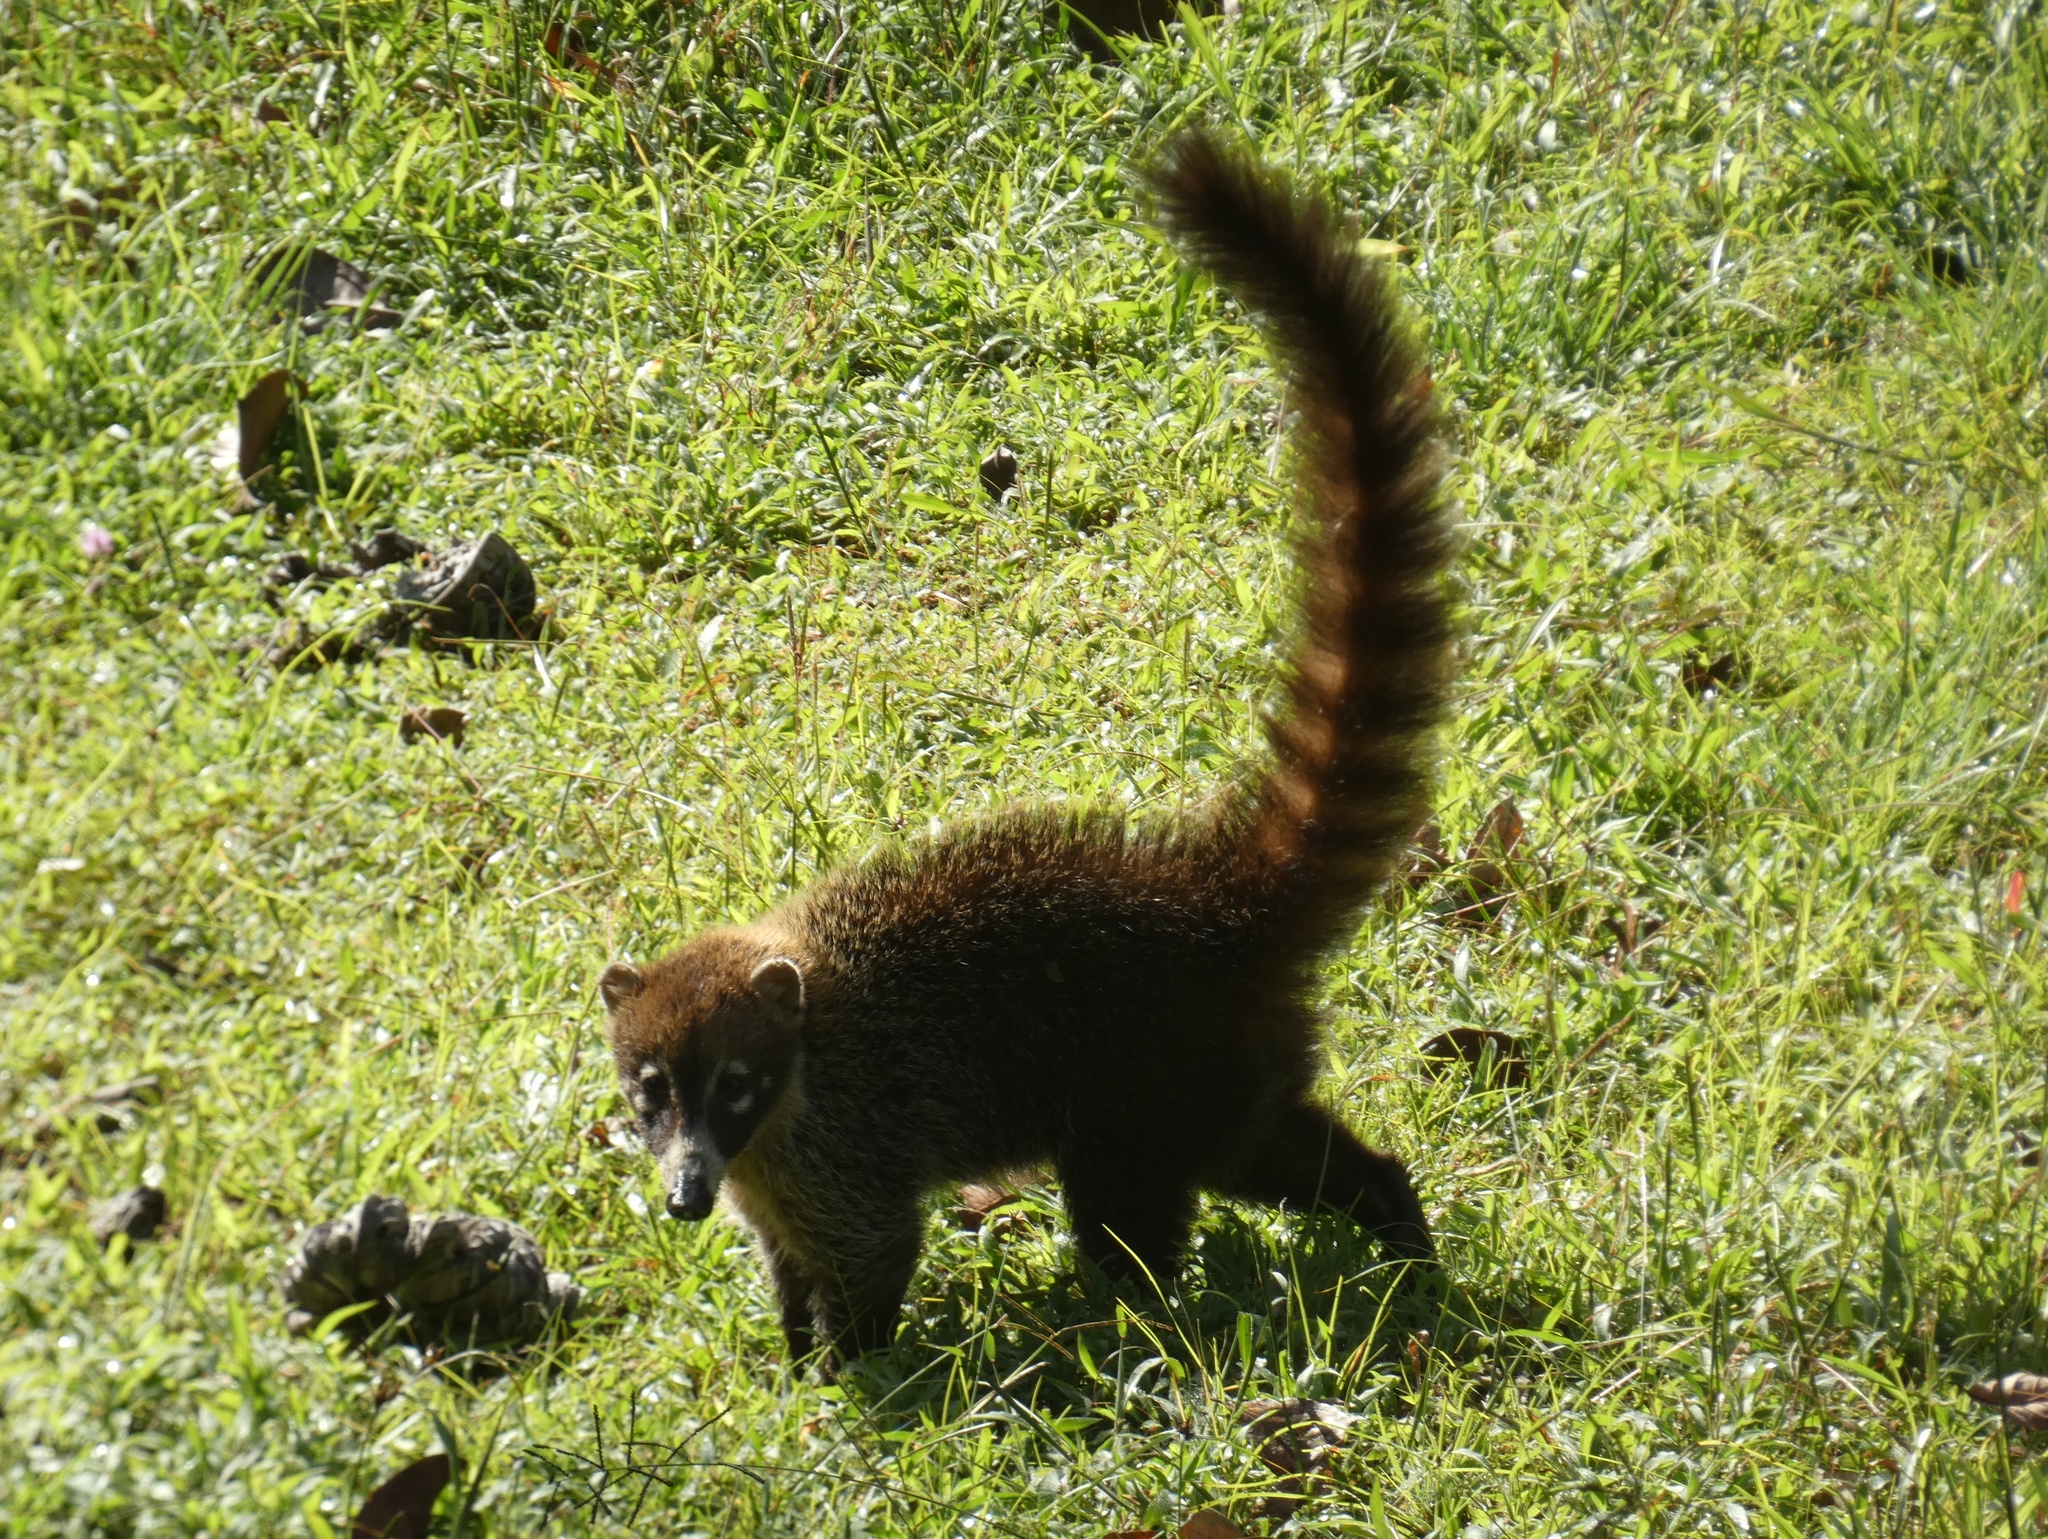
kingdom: Animalia
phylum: Chordata
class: Mammalia
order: Carnivora
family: Procyonidae
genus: Nasua
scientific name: Nasua narica
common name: White-nosed coati
